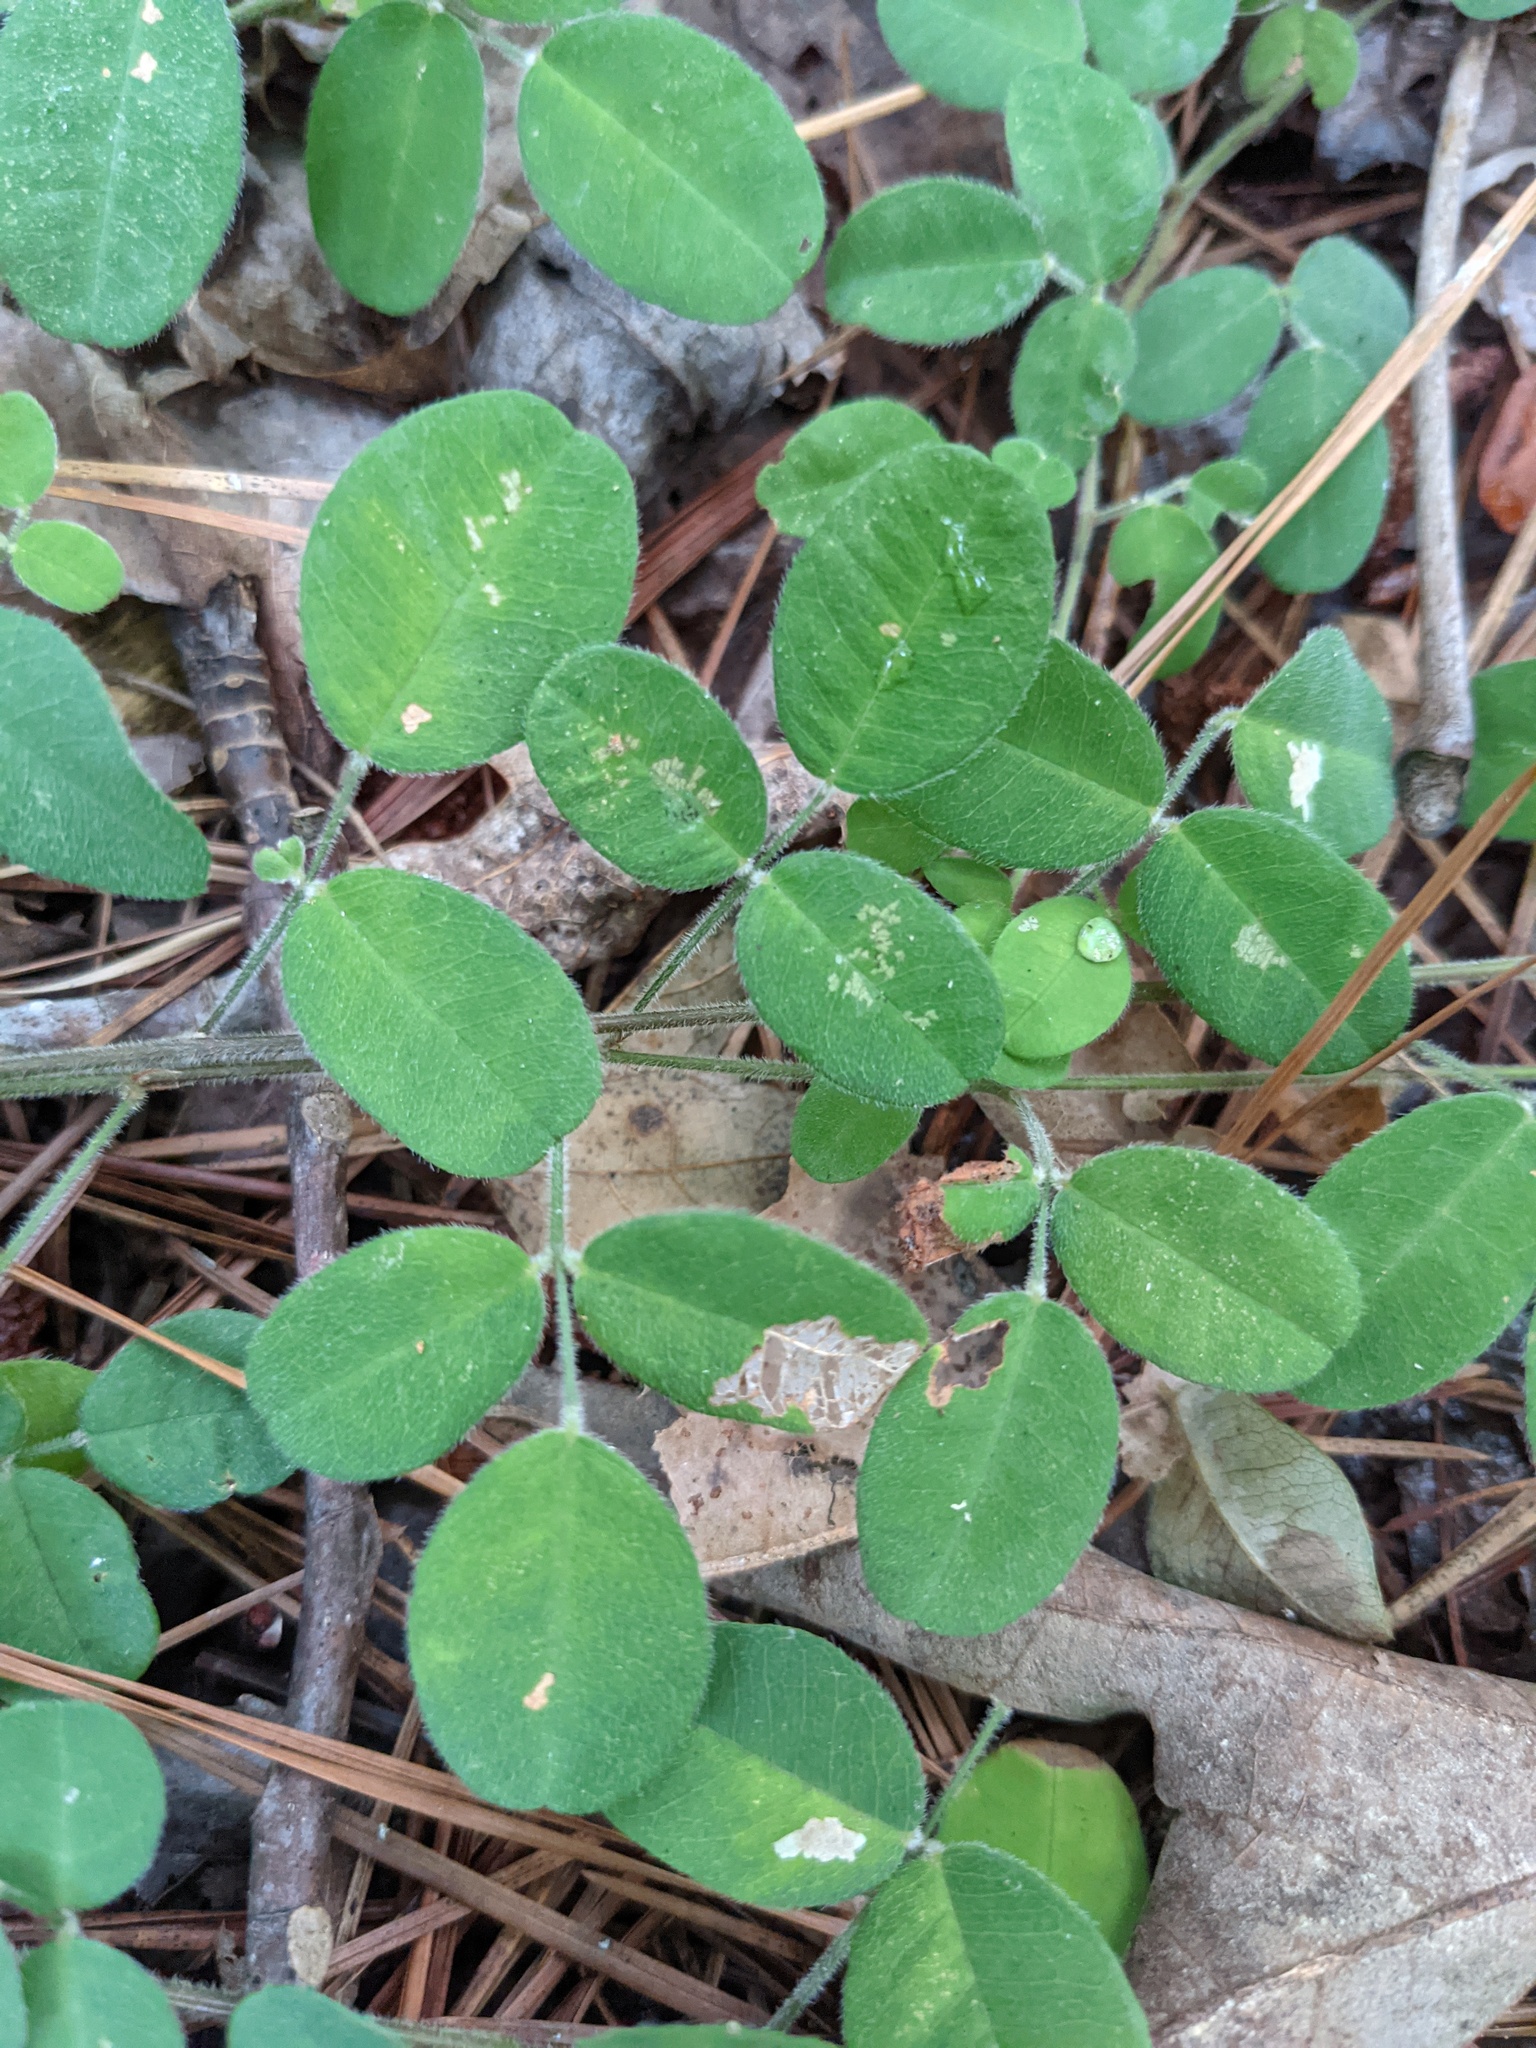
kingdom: Plantae
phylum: Tracheophyta
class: Magnoliopsida
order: Fabales
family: Fabaceae
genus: Lespedeza
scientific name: Lespedeza procumbens
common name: Downy trailing bush-clover
